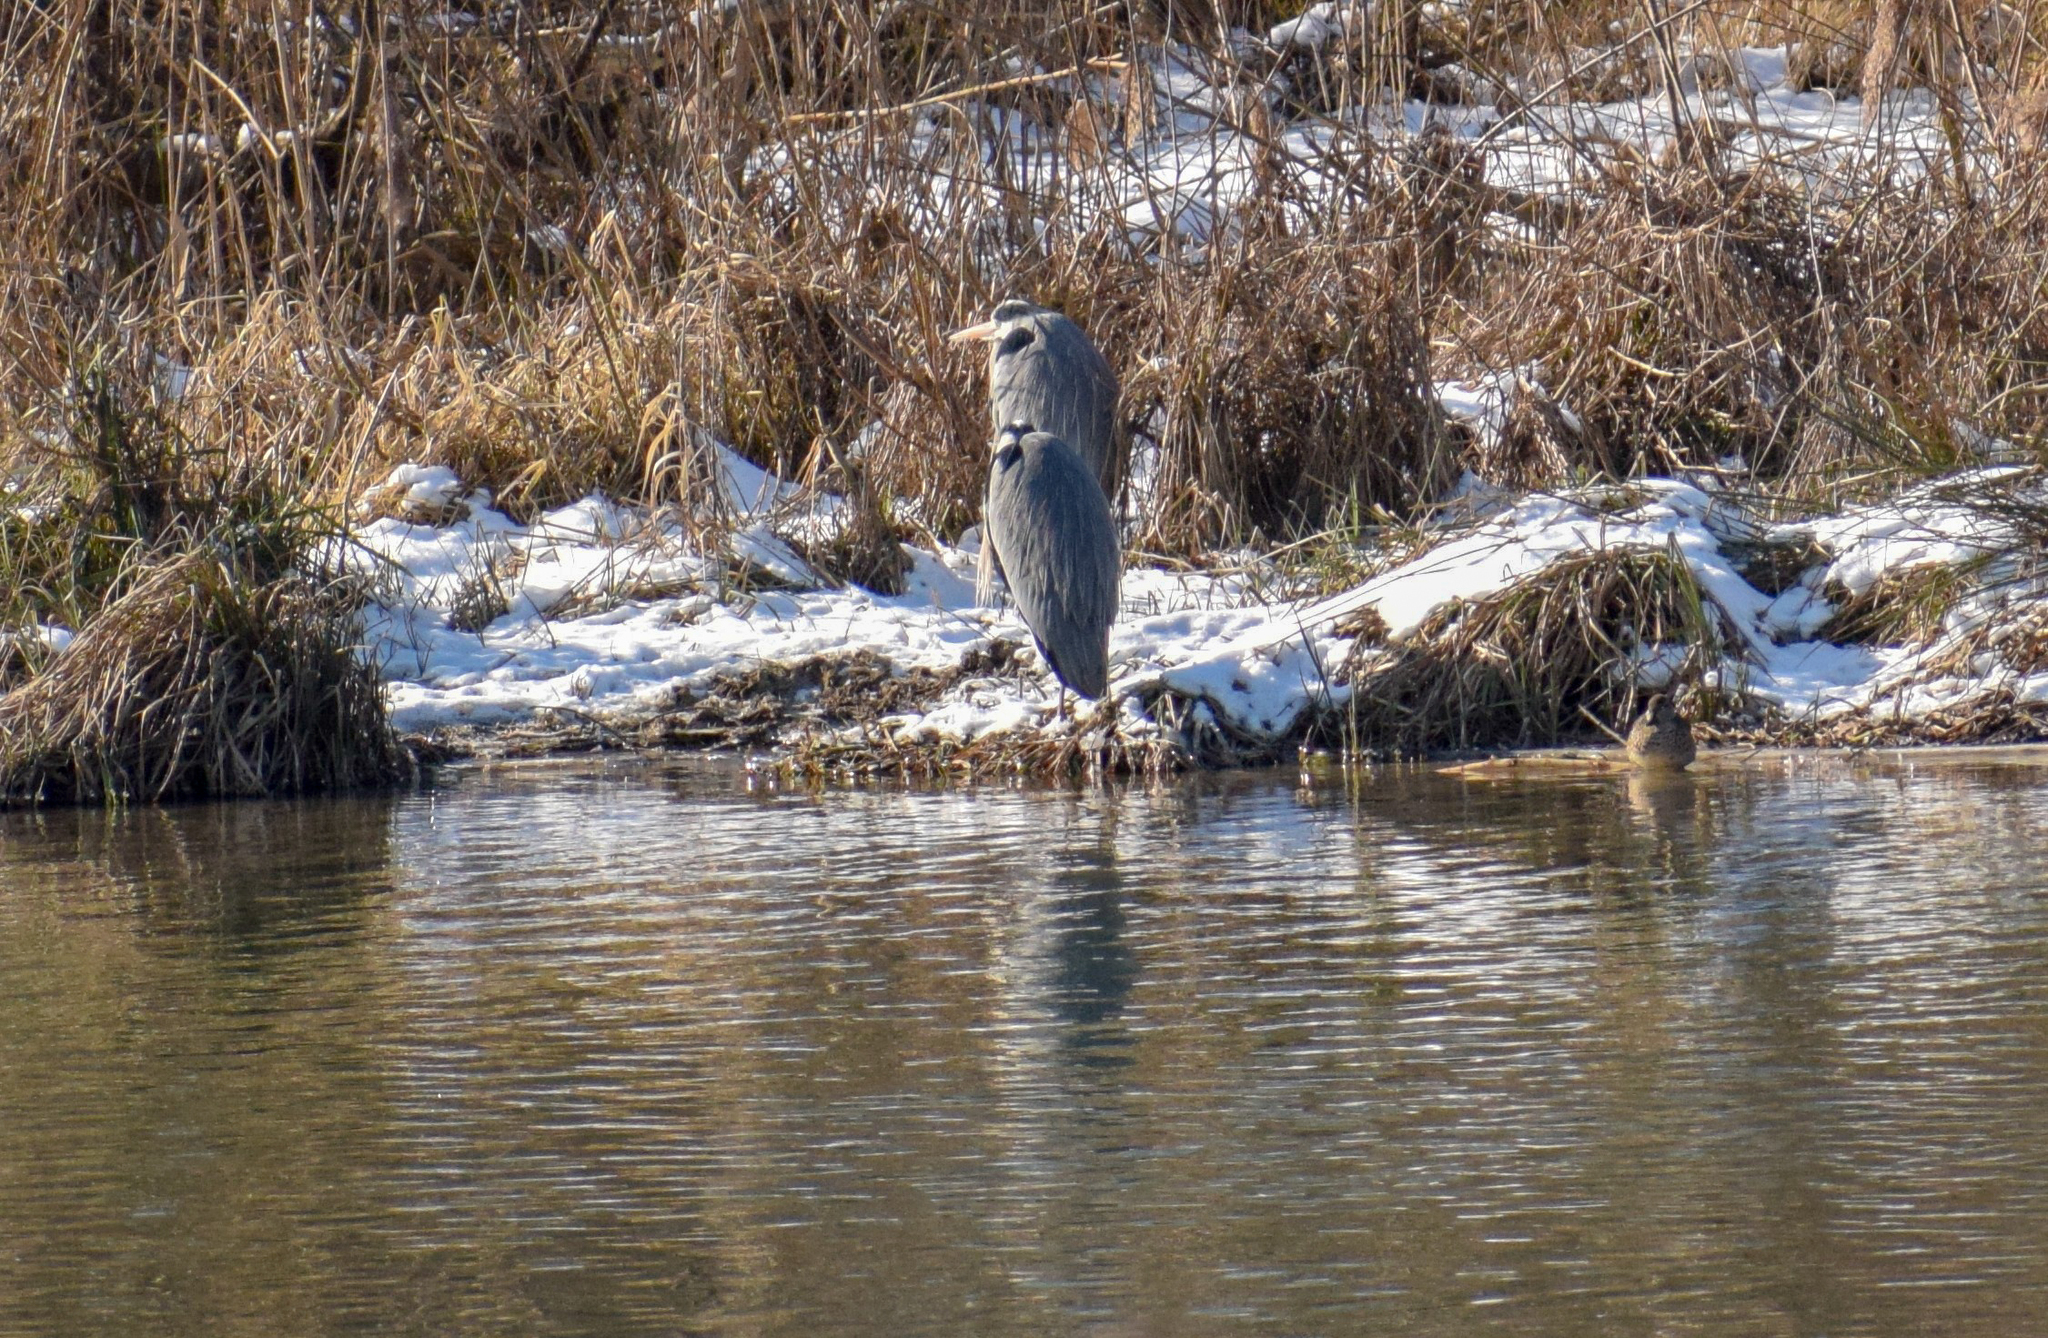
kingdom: Animalia
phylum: Chordata
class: Aves
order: Pelecaniformes
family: Ardeidae
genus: Ardea
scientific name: Ardea cinerea
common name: Grey heron
